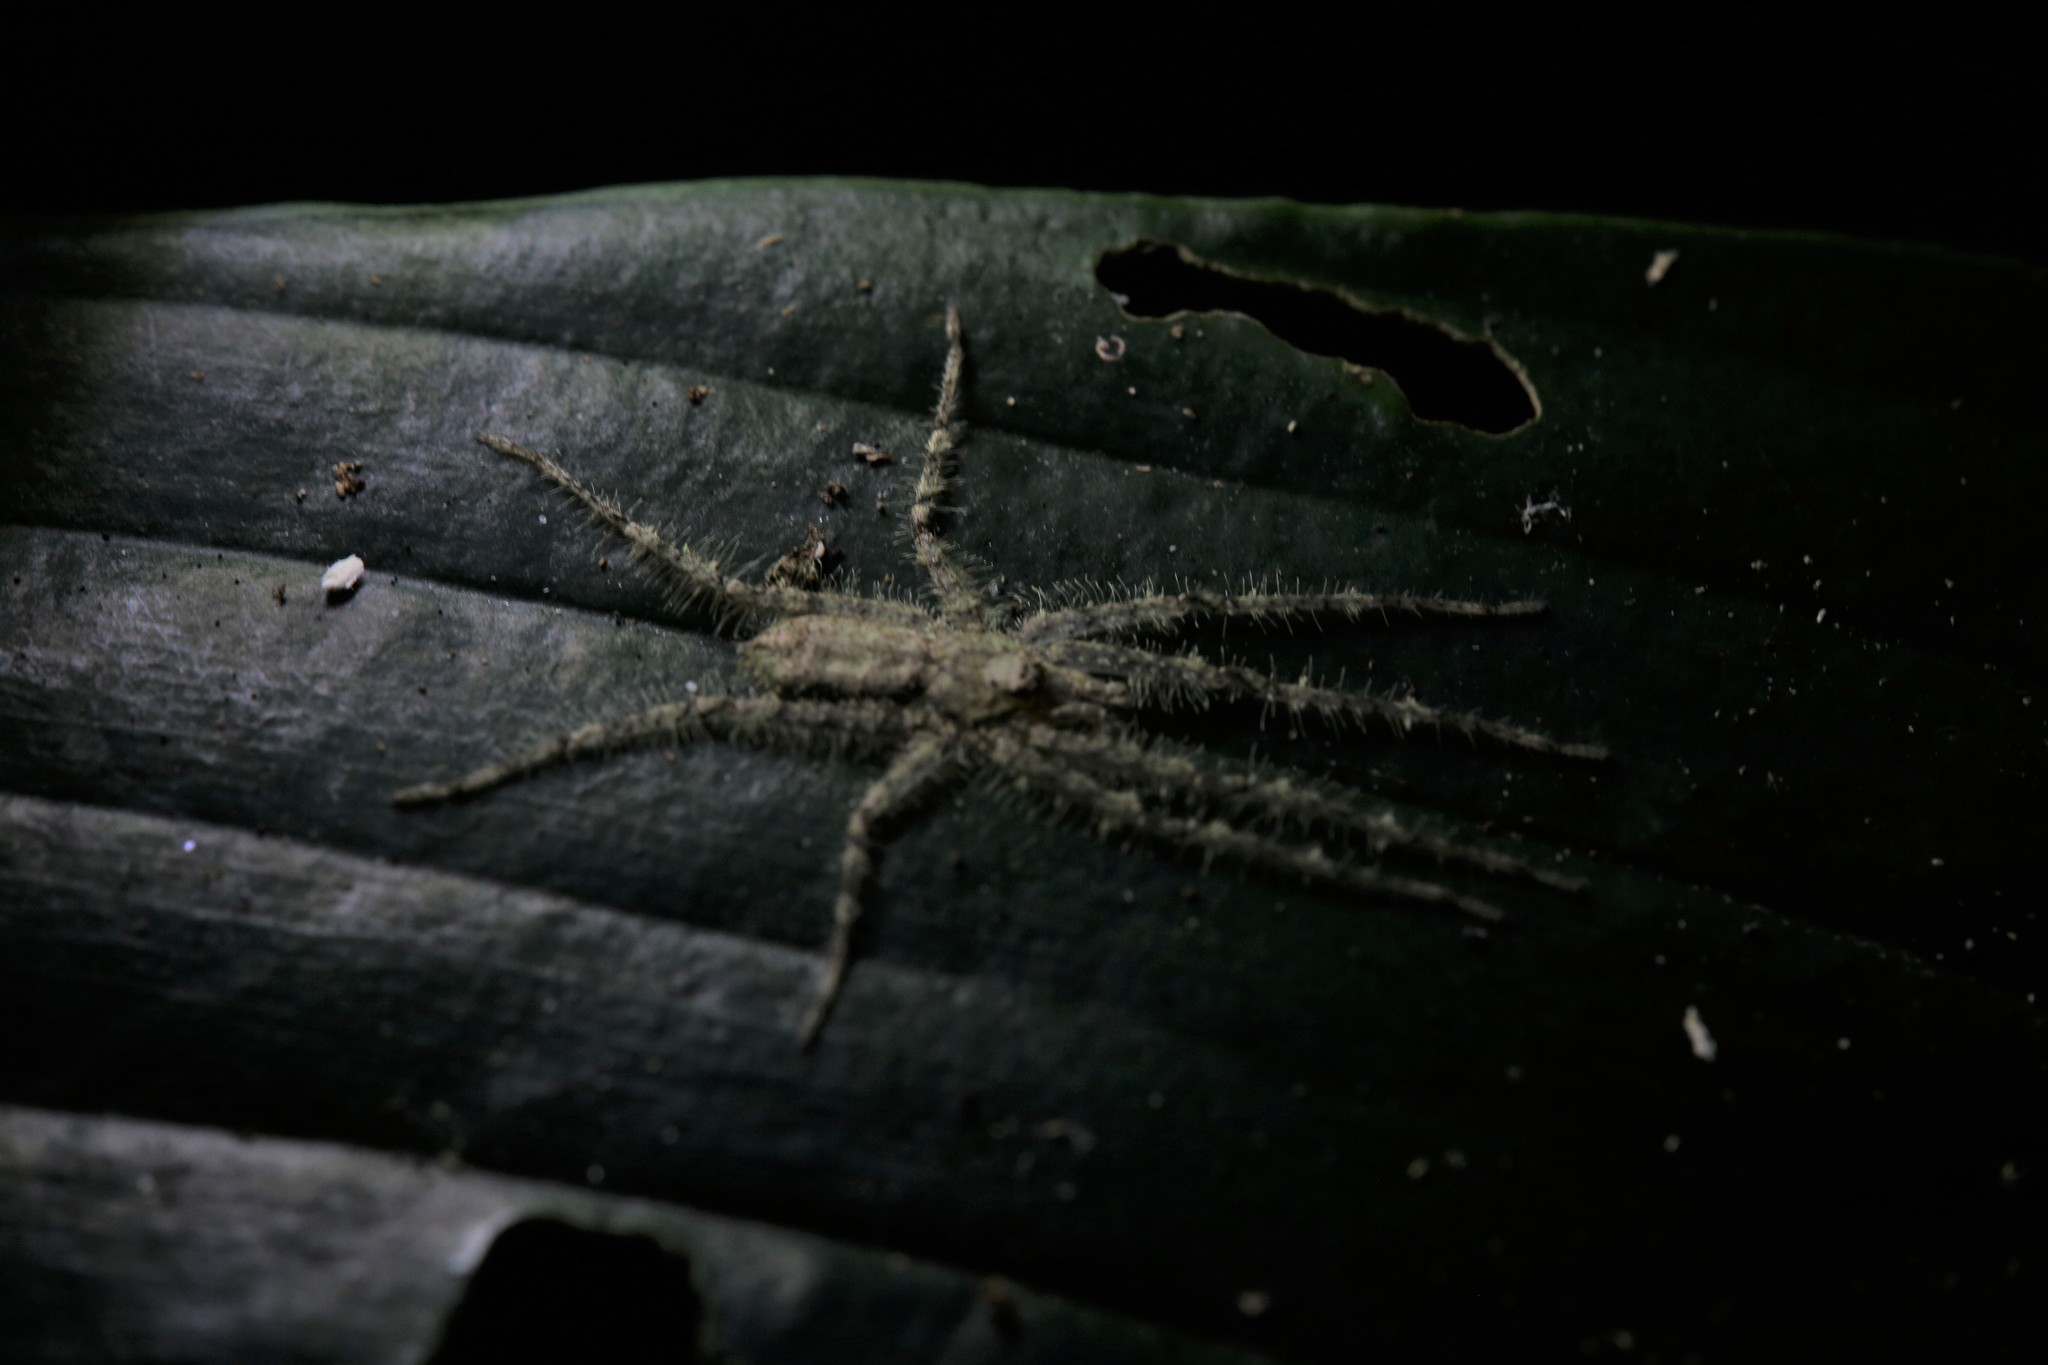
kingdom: Animalia
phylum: Arthropoda
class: Arachnida
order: Araneae
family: Sparassidae
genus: Pandercetes
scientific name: Pandercetes gracilis
